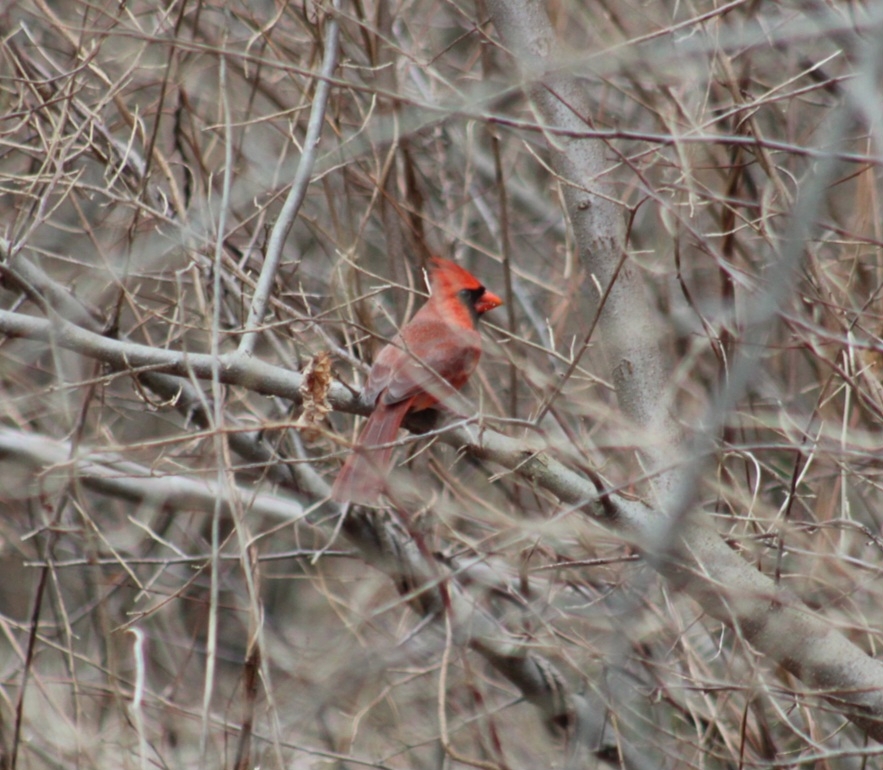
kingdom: Animalia
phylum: Chordata
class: Aves
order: Passeriformes
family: Cardinalidae
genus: Cardinalis
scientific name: Cardinalis cardinalis
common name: Northern cardinal
